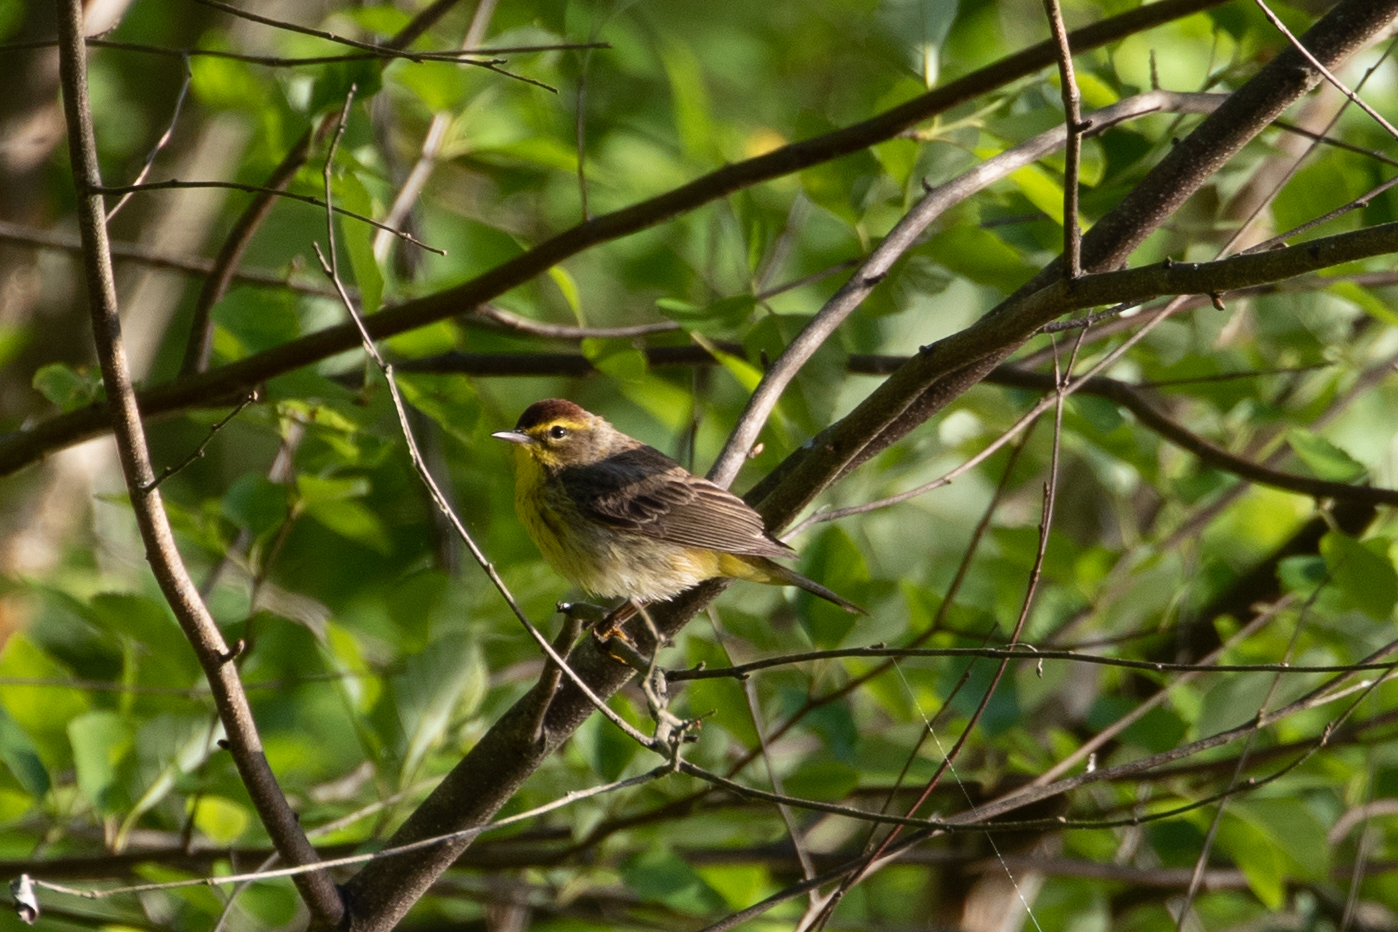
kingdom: Animalia
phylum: Chordata
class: Aves
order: Passeriformes
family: Parulidae
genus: Setophaga
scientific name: Setophaga palmarum
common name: Palm warbler
